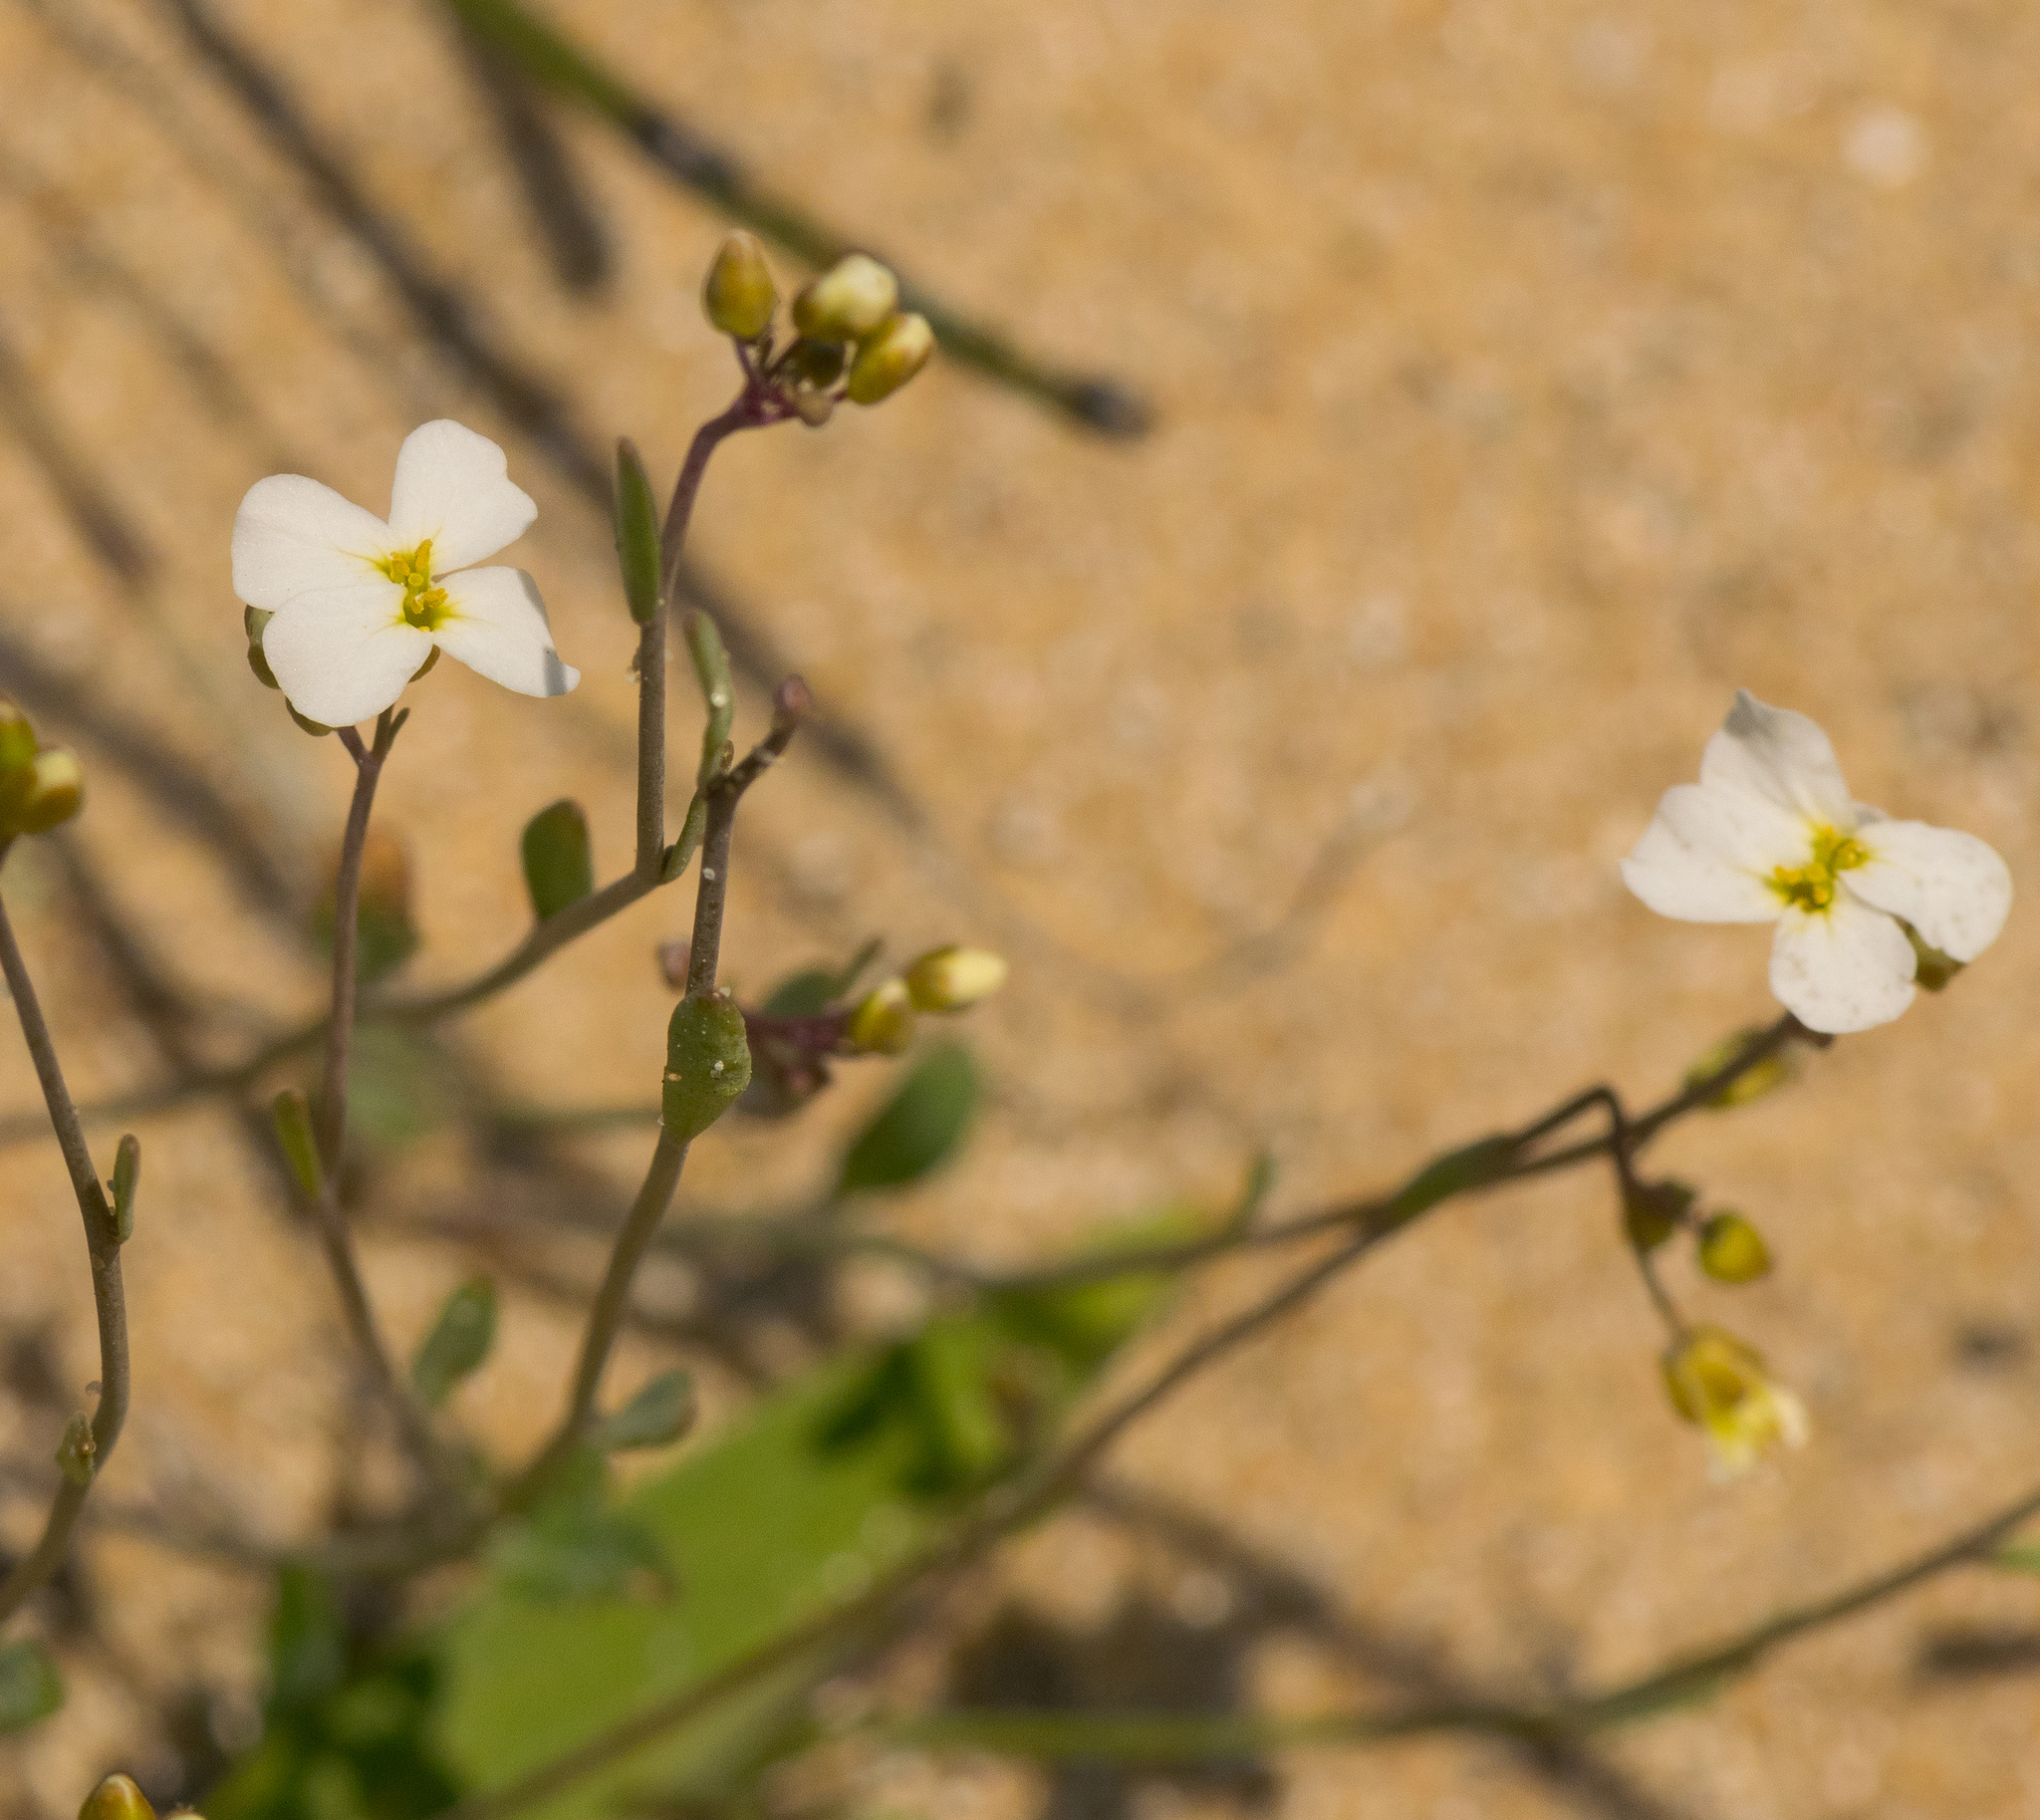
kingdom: Plantae
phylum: Tracheophyta
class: Magnoliopsida
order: Brassicales
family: Brassicaceae
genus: Arabidopsis
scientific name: Arabidopsis lyrata
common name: Lyrate rockcress
